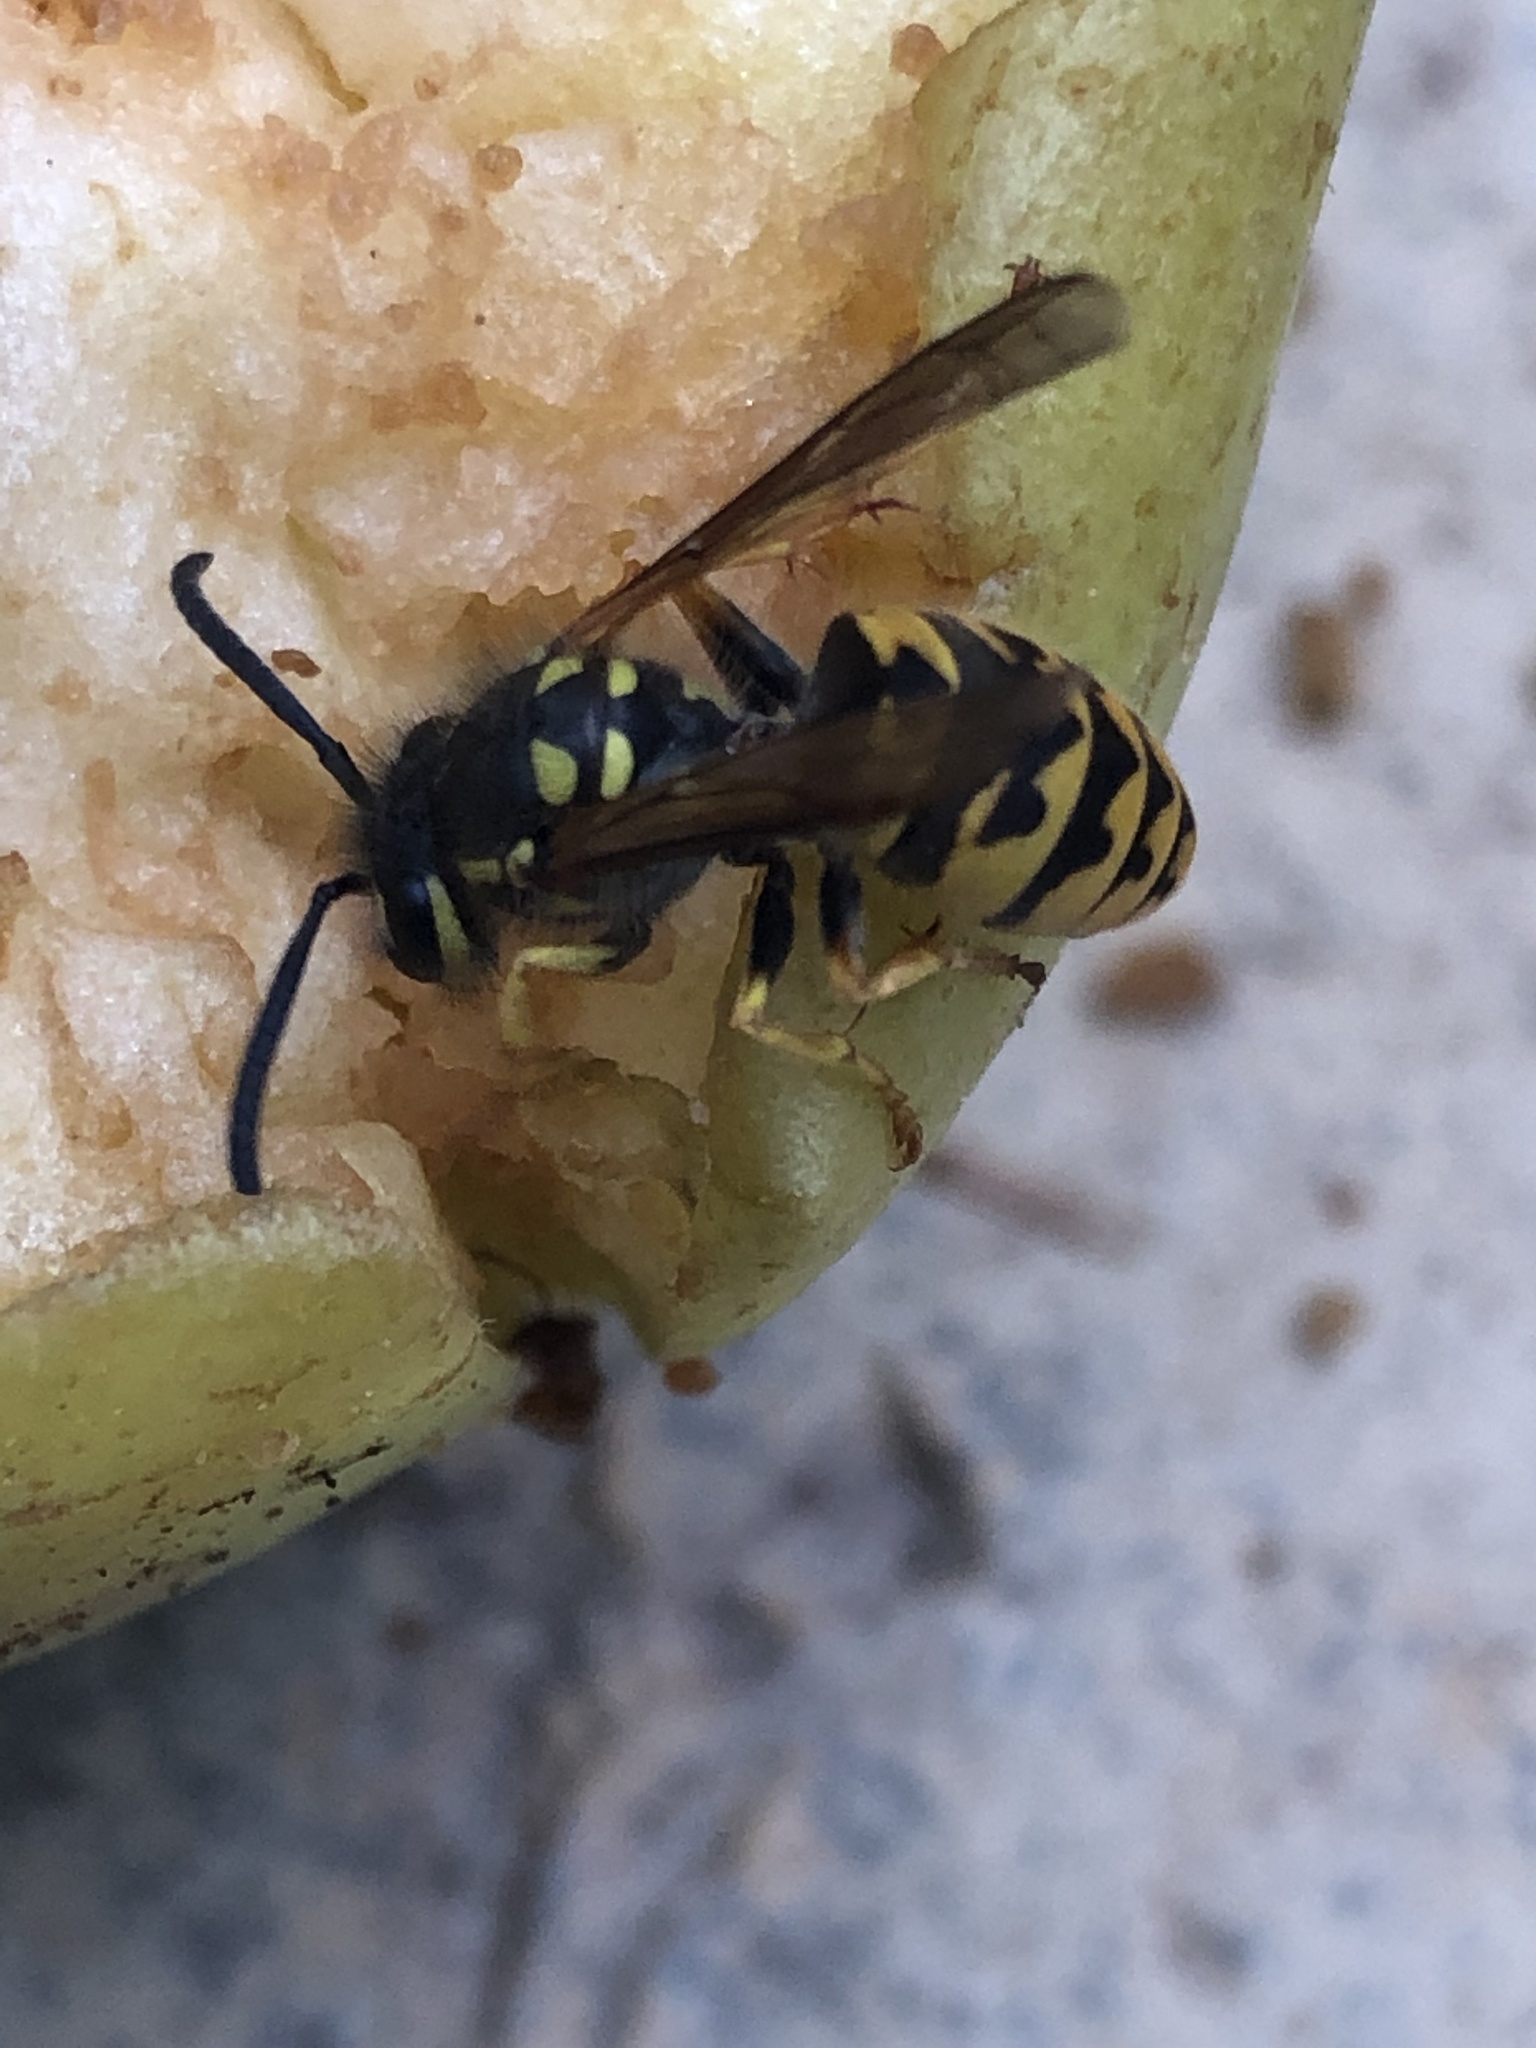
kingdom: Animalia
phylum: Arthropoda
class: Insecta
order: Hymenoptera
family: Vespidae
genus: Vespula
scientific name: Vespula germanica
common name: German wasp
